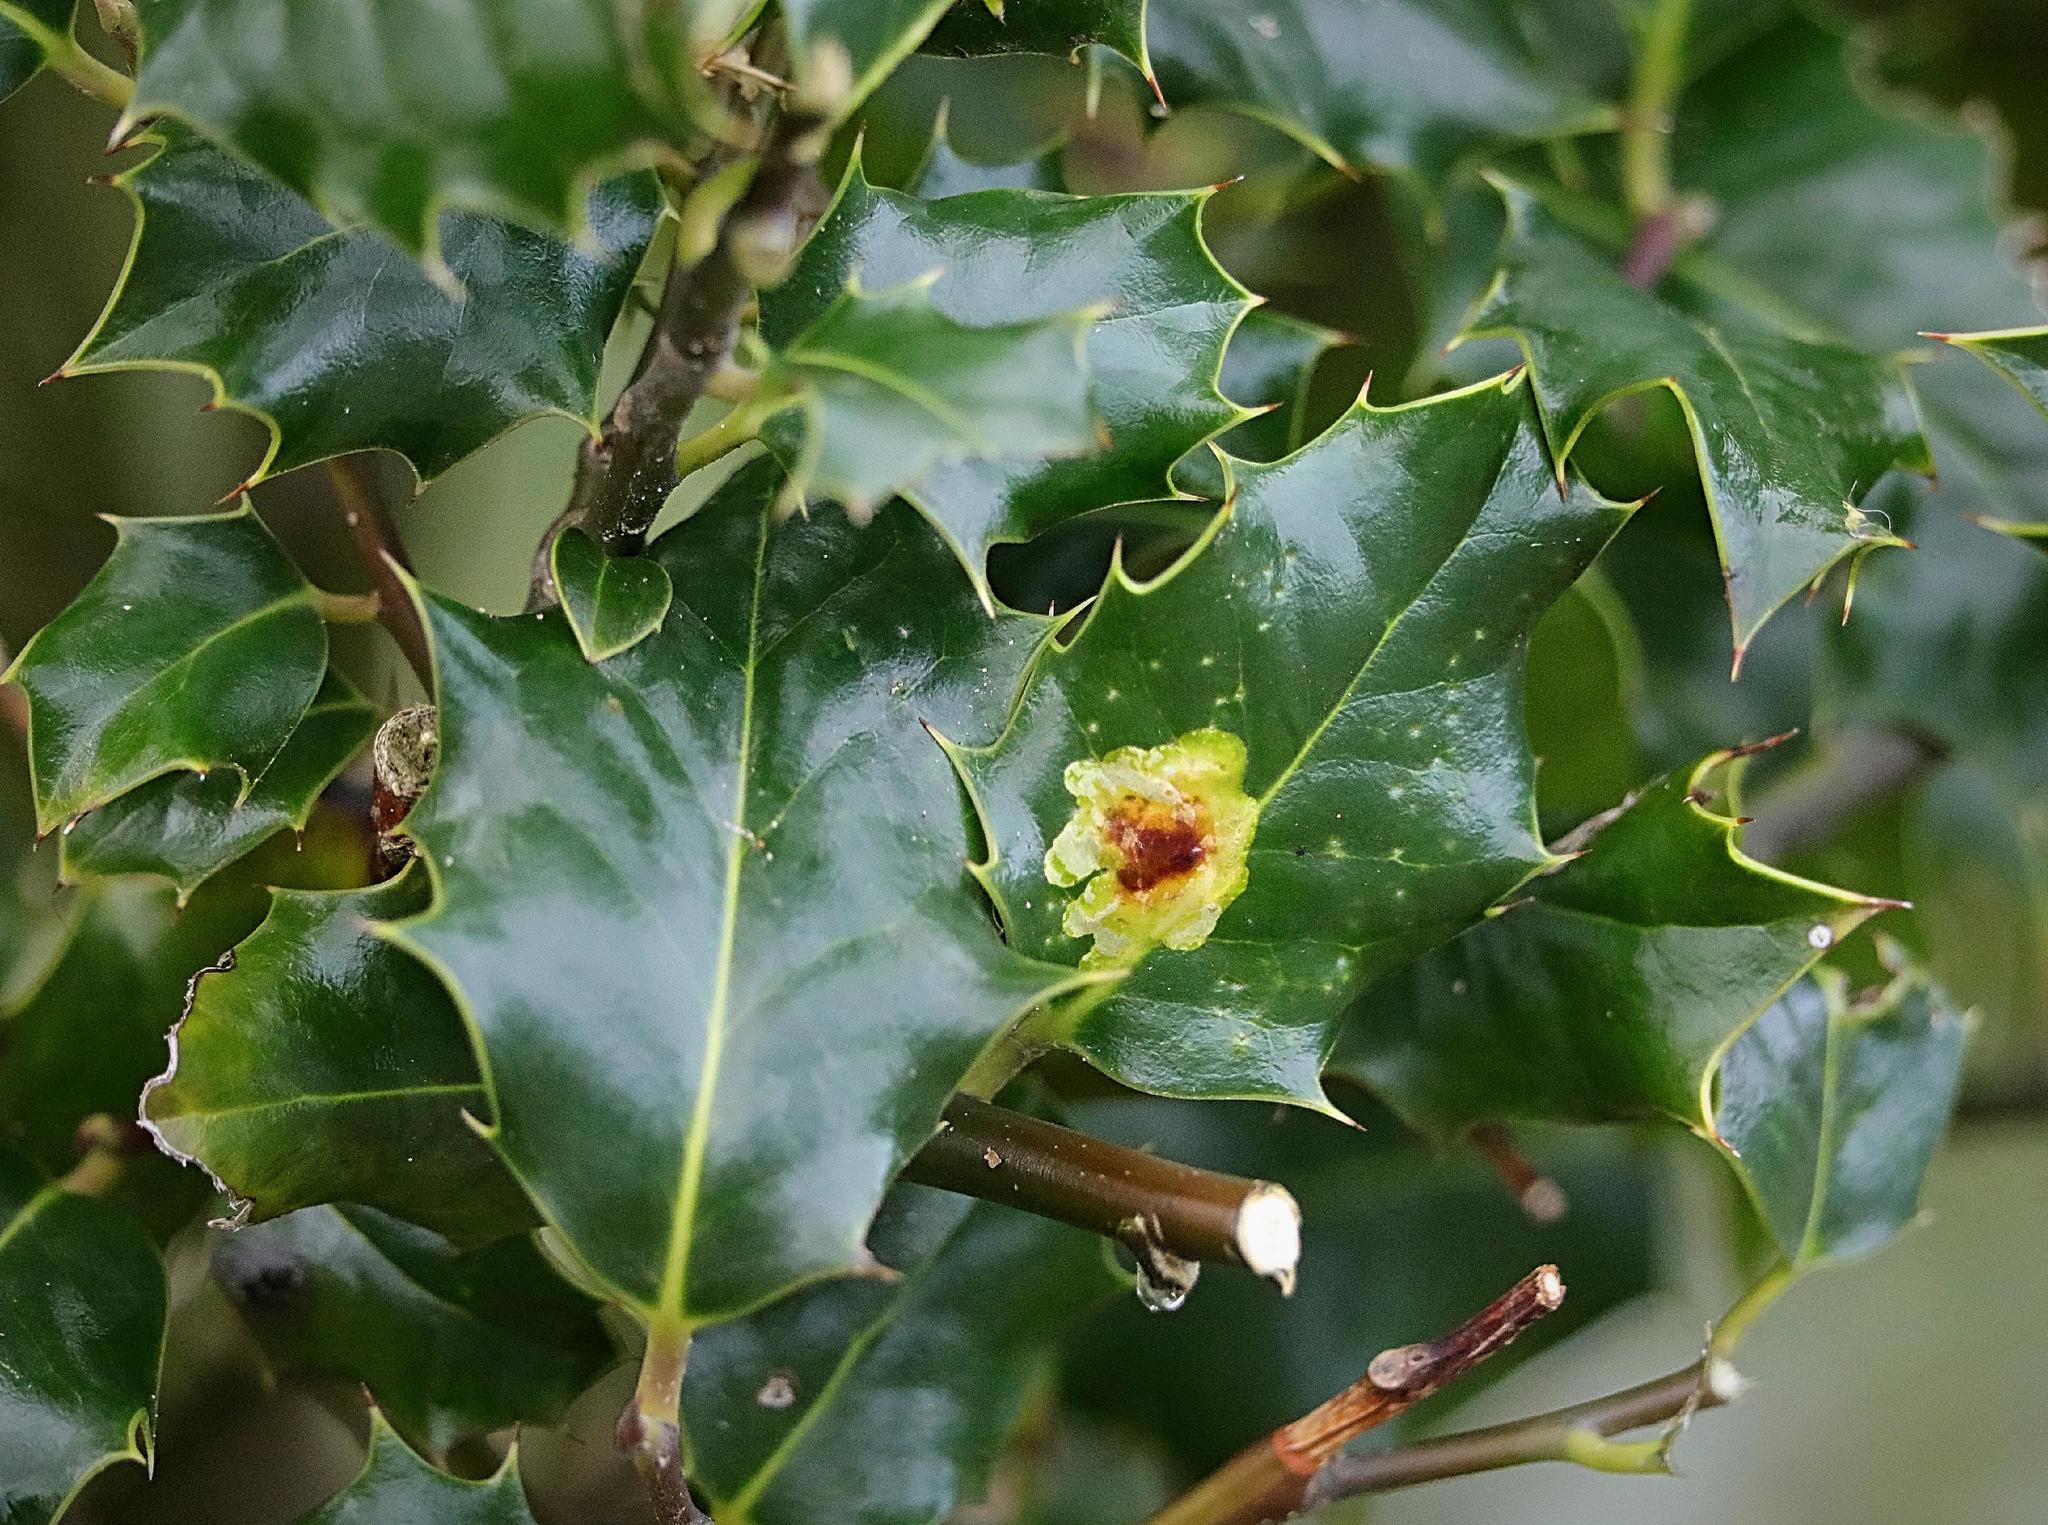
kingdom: Plantae
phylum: Tracheophyta
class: Magnoliopsida
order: Aquifoliales
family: Aquifoliaceae
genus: Ilex
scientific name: Ilex aquifolium
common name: English holly
